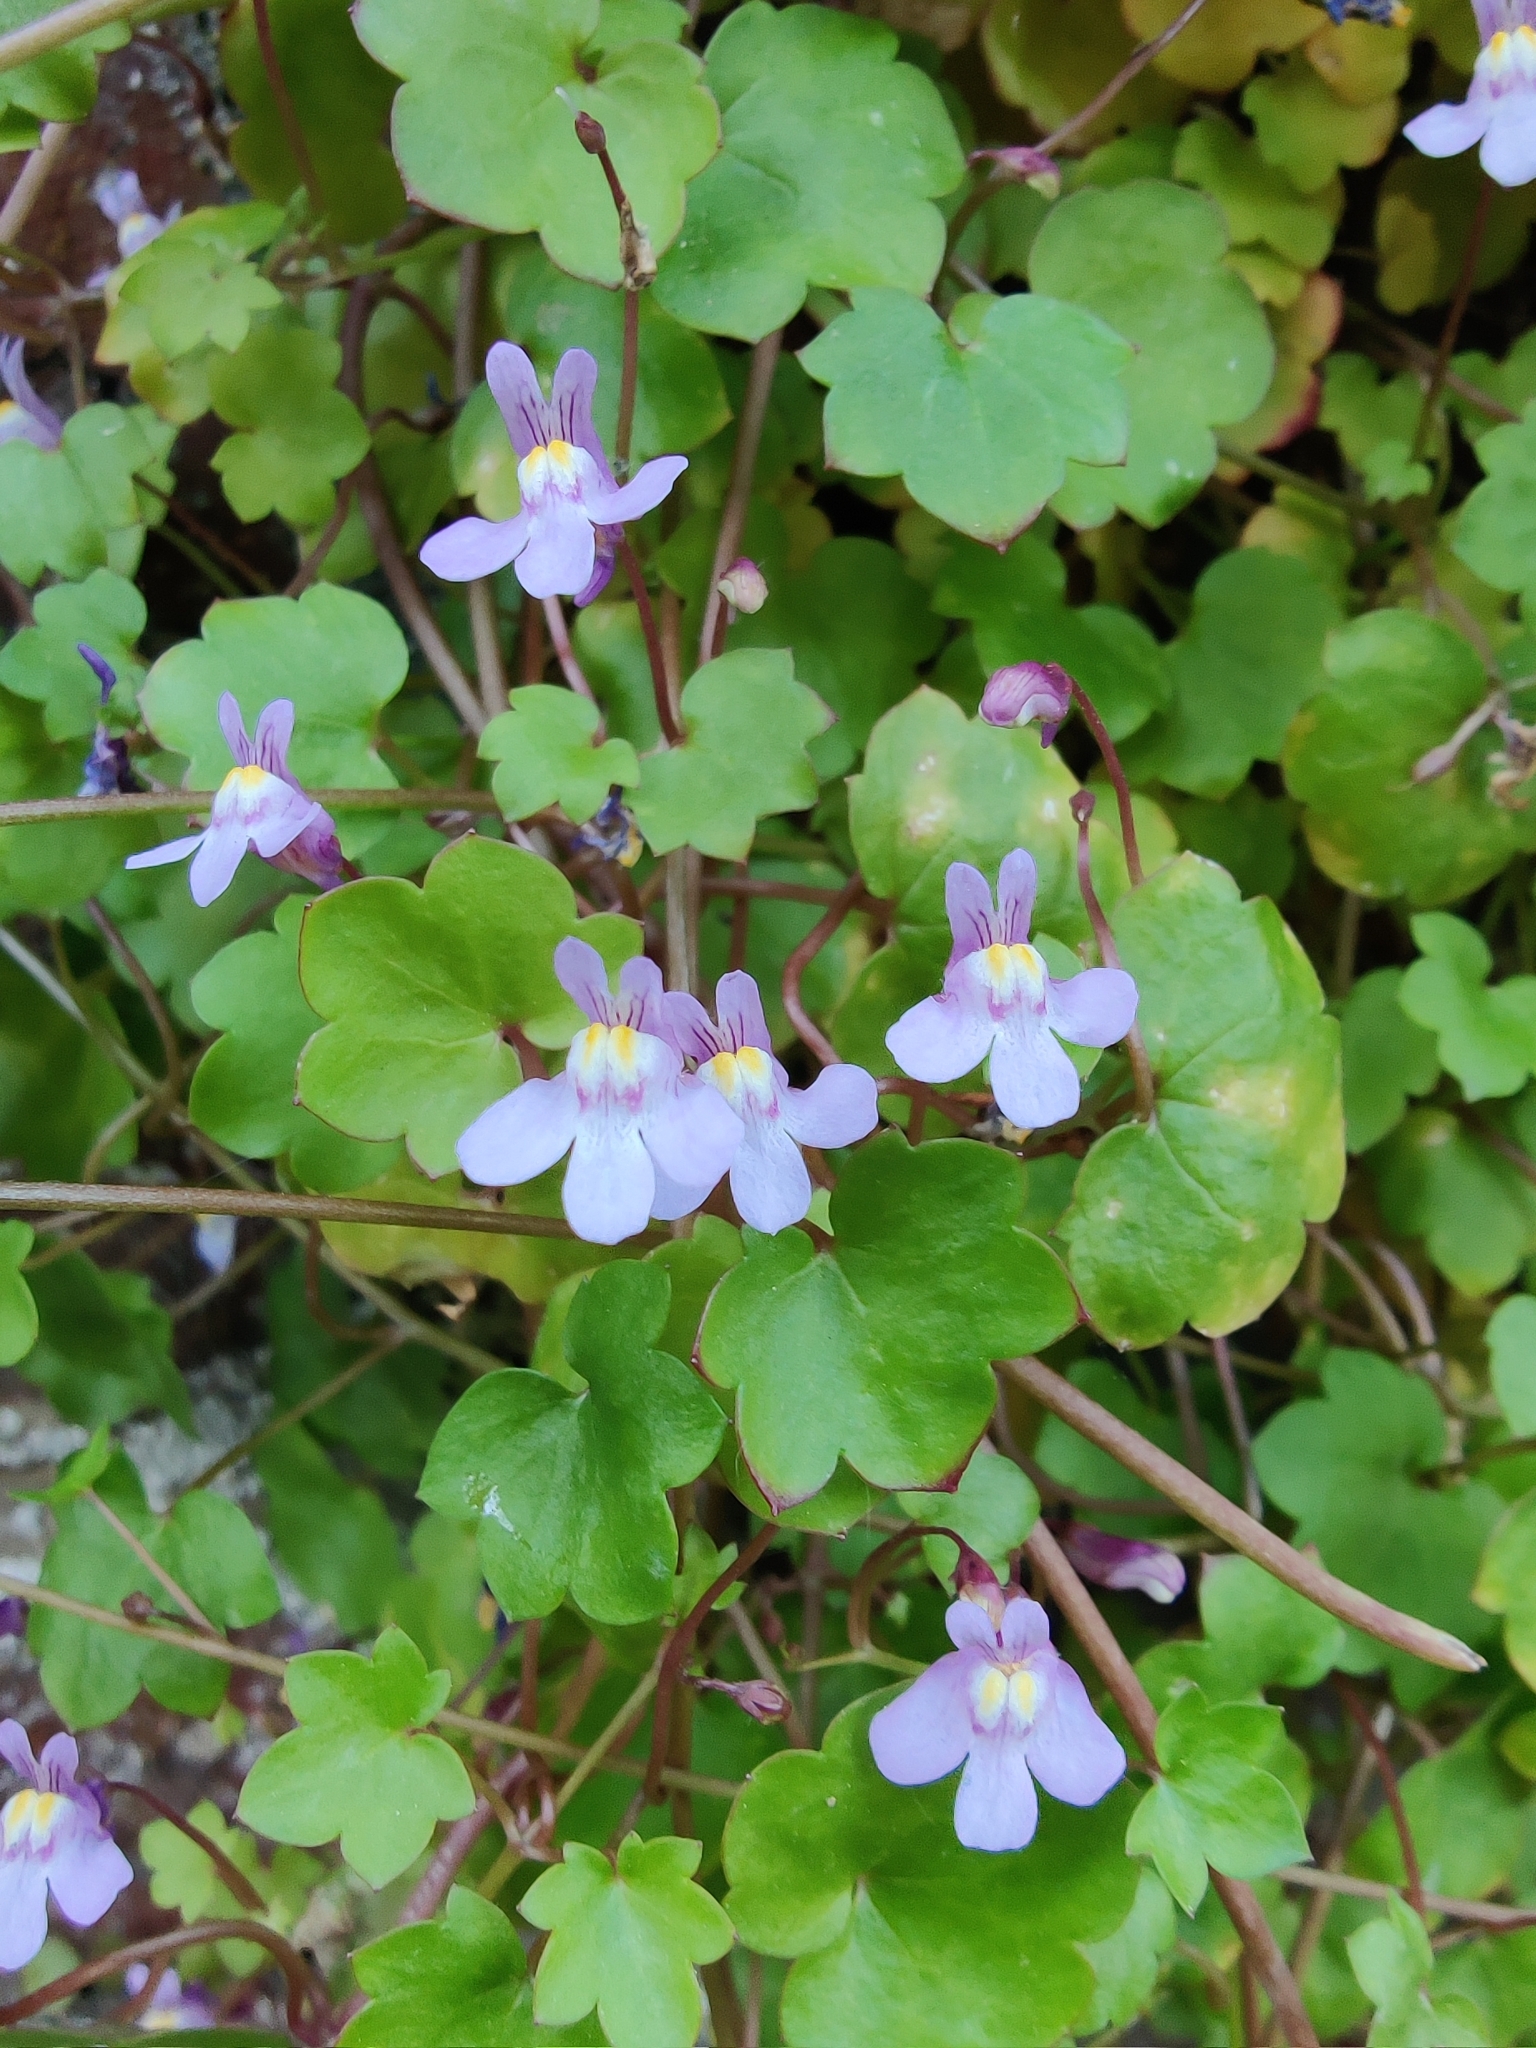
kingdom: Plantae
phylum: Tracheophyta
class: Magnoliopsida
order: Lamiales
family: Plantaginaceae
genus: Cymbalaria
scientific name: Cymbalaria muralis
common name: Ivy-leaved toadflax
